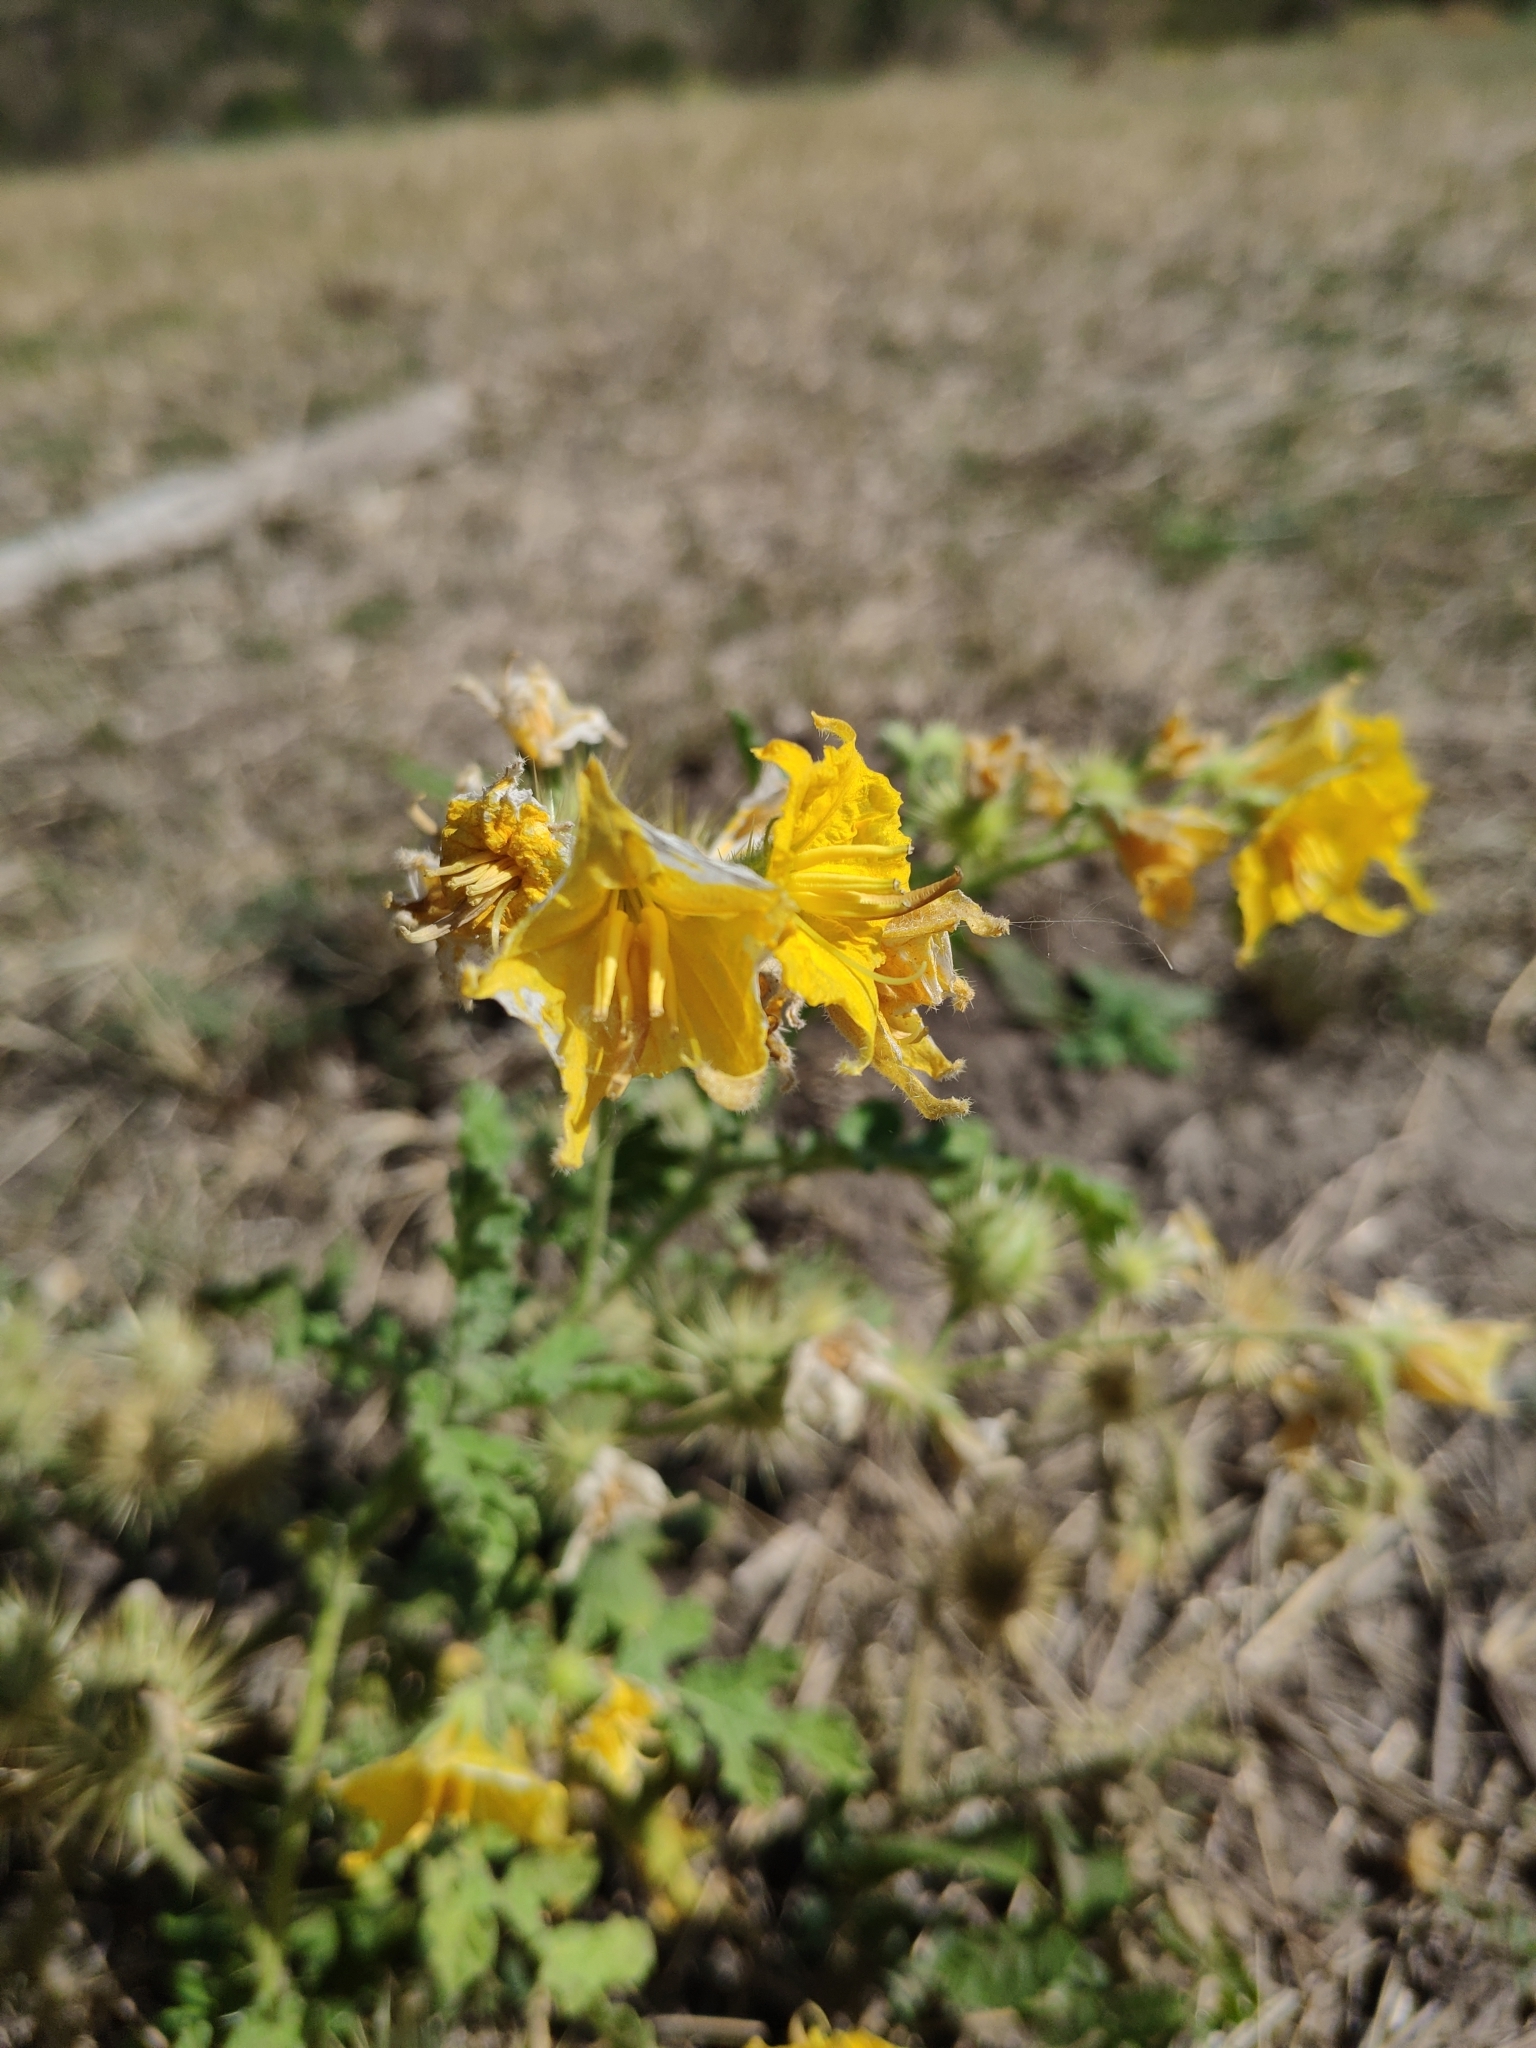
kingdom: Plantae
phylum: Tracheophyta
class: Magnoliopsida
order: Solanales
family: Solanaceae
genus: Solanum
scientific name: Solanum angustifolium
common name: Buffalobur nightshade
